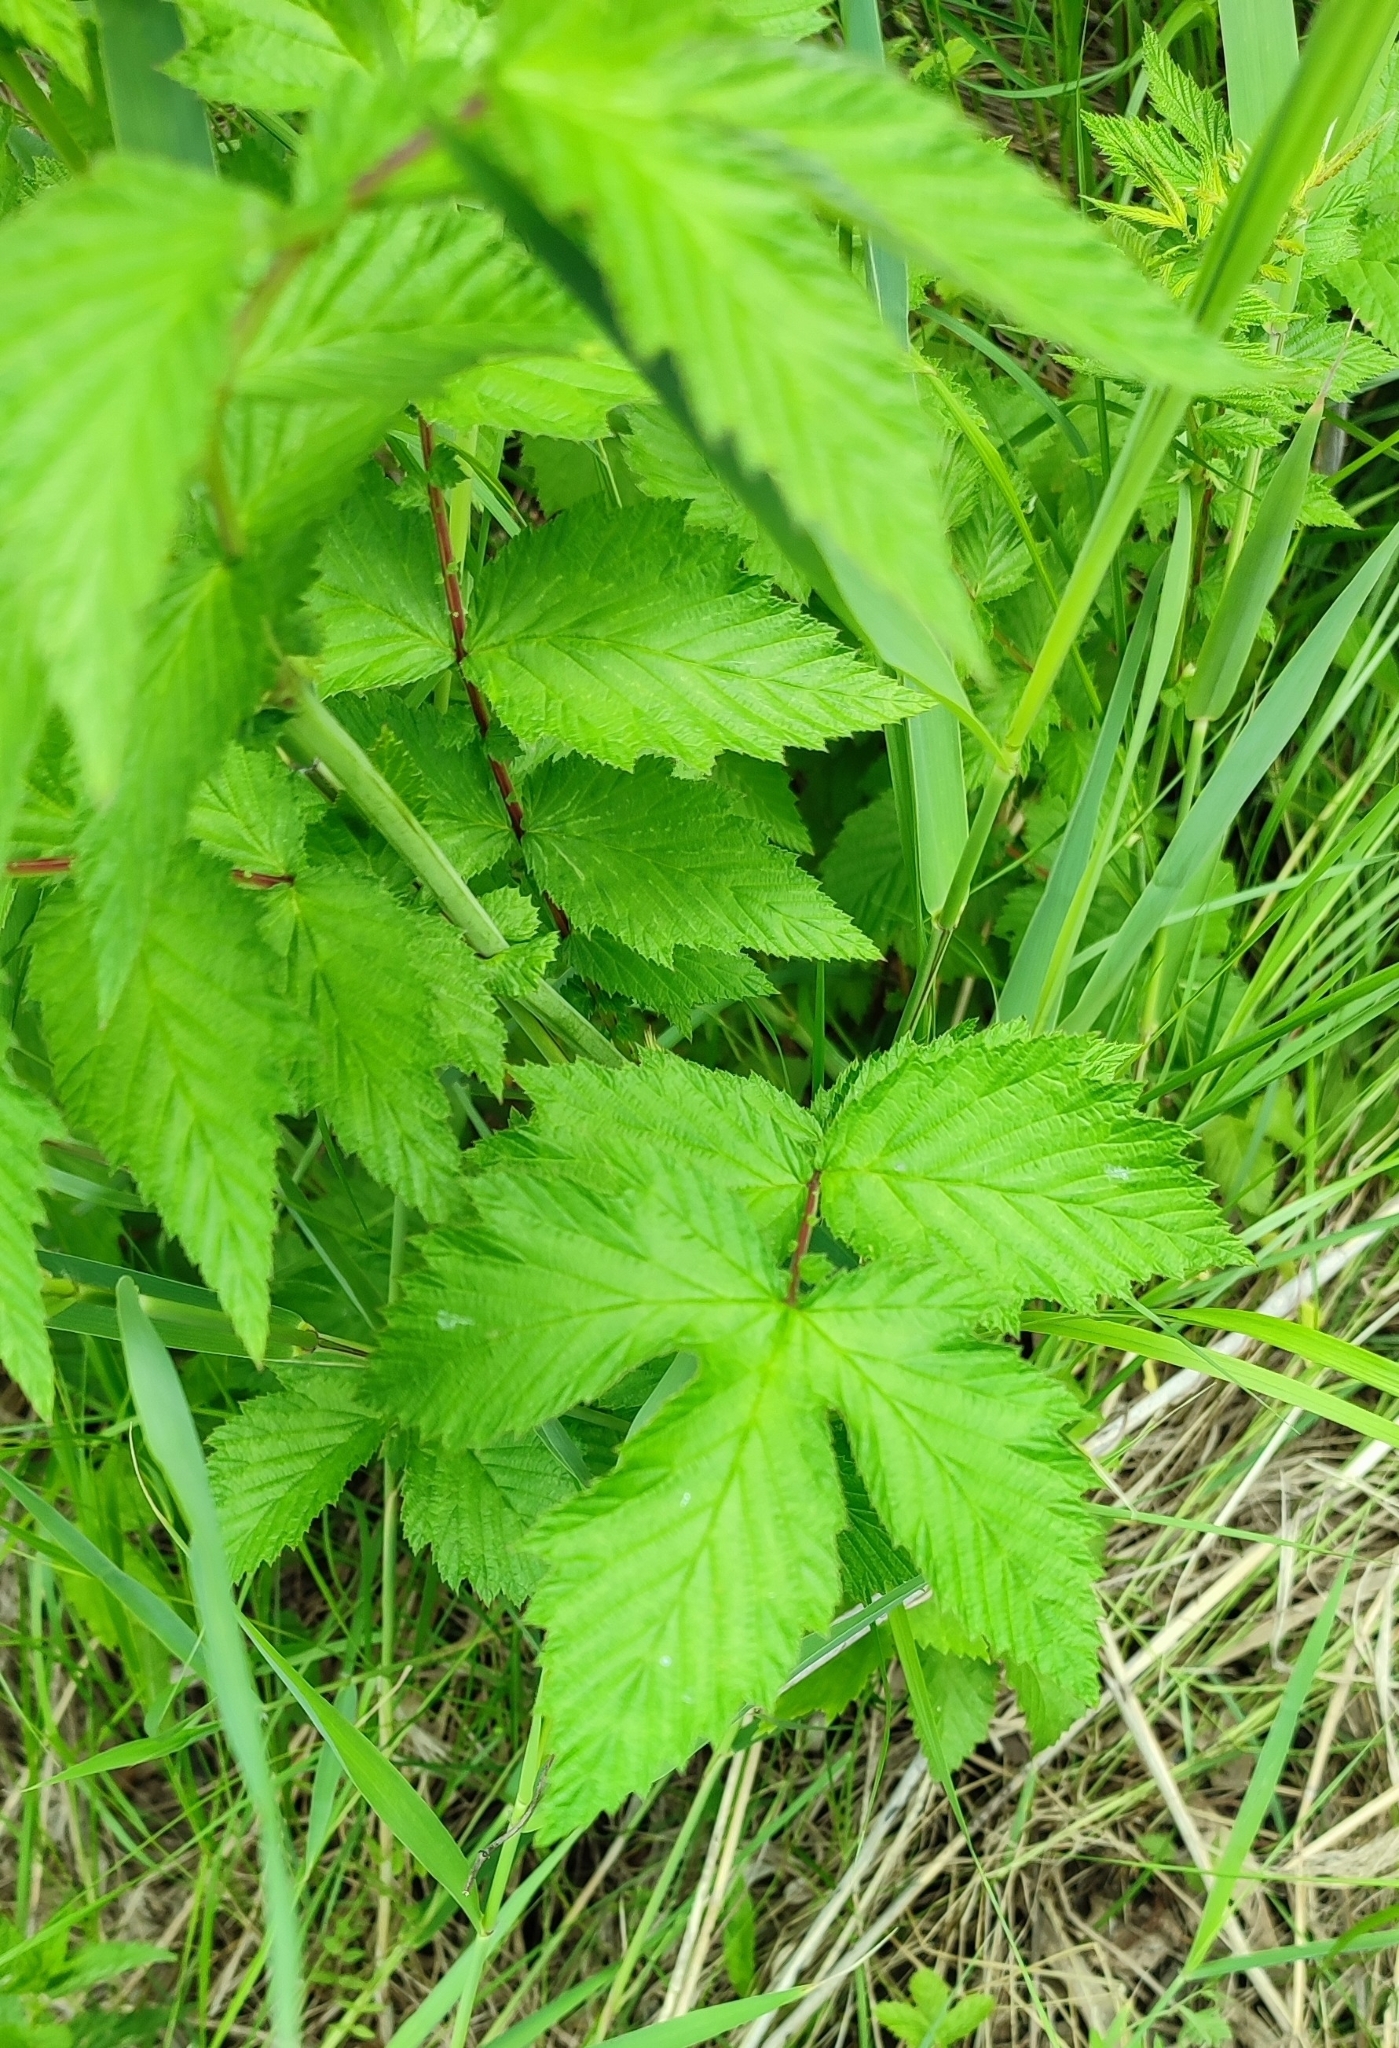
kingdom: Plantae
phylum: Tracheophyta
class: Magnoliopsida
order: Rosales
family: Rosaceae
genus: Filipendula
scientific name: Filipendula ulmaria
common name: Meadowsweet
